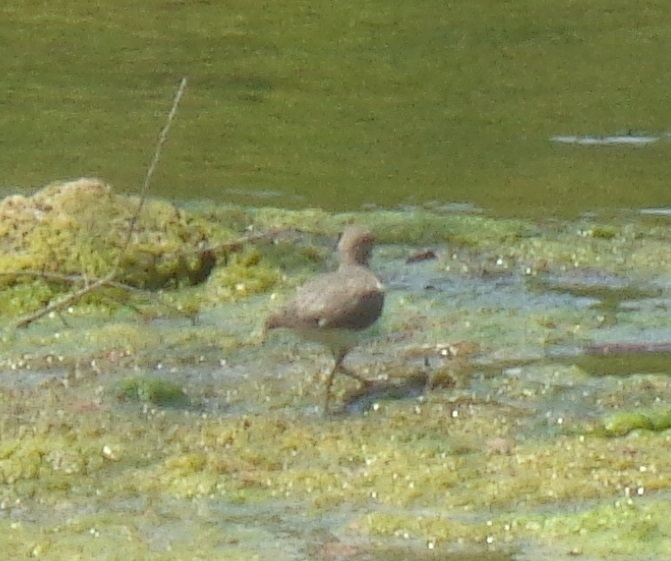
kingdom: Animalia
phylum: Chordata
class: Aves
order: Charadriiformes
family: Scolopacidae
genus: Actitis
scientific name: Actitis macularius
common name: Spotted sandpiper
